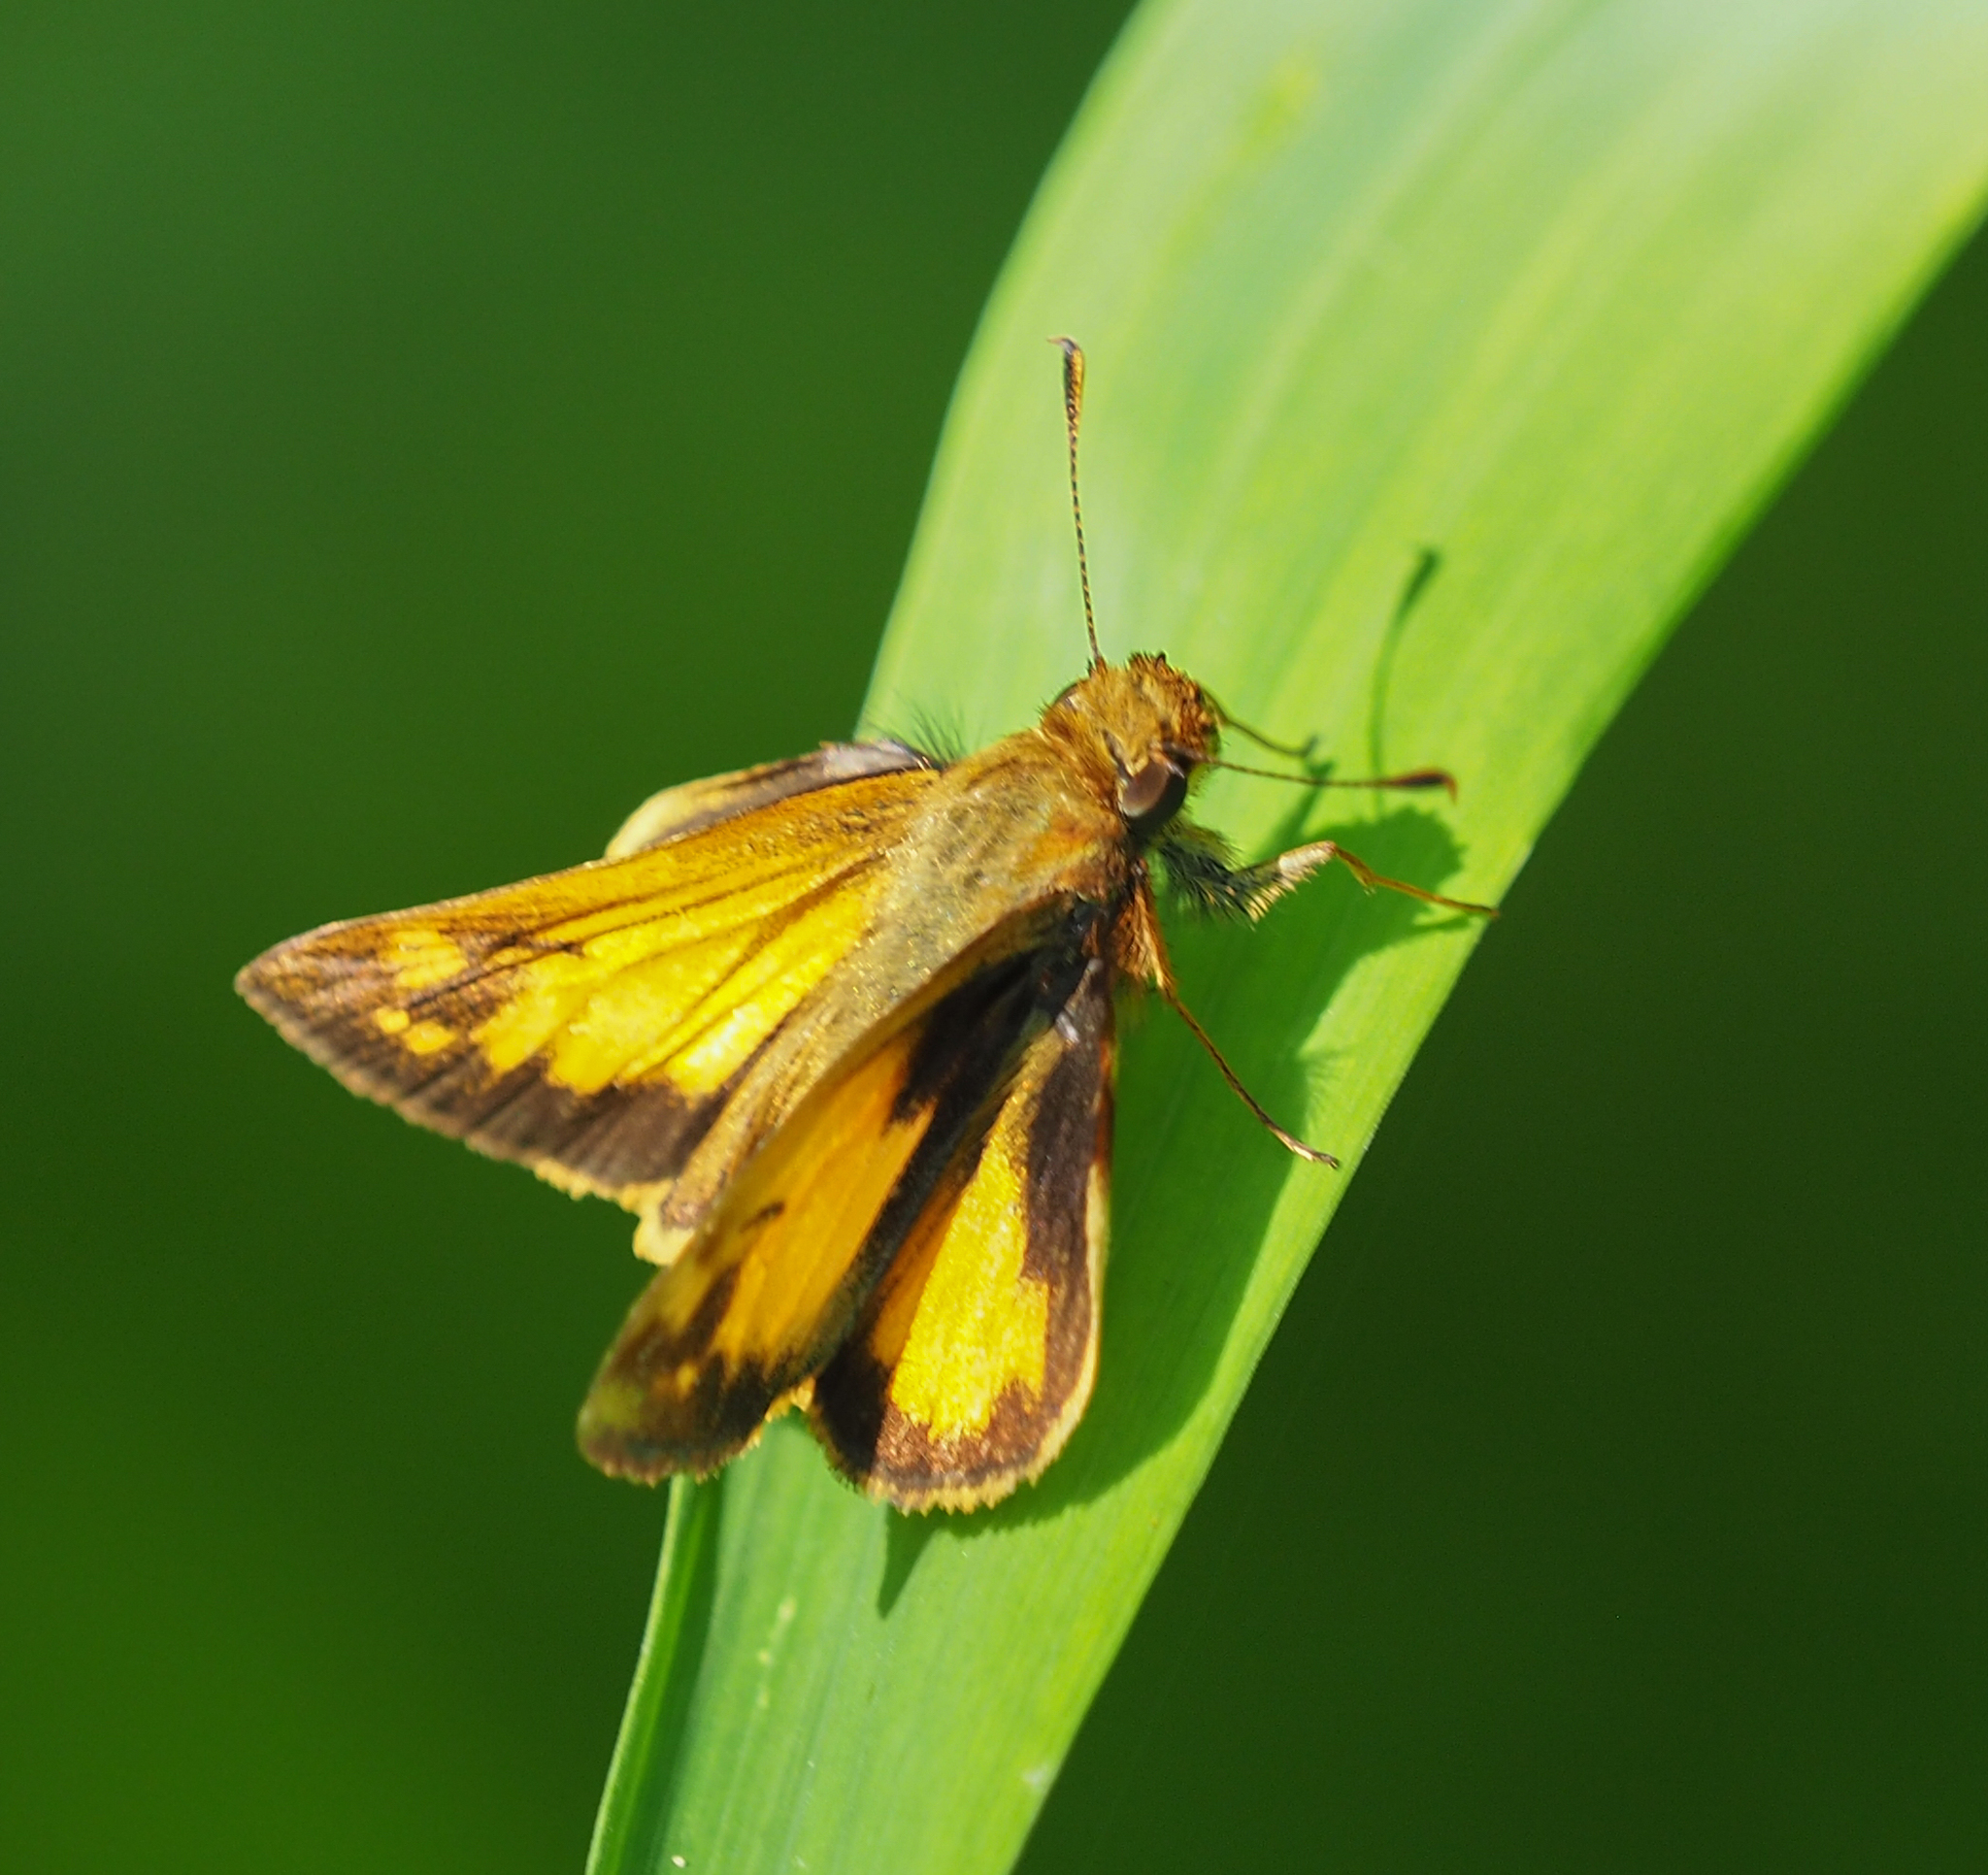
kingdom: Animalia
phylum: Arthropoda
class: Insecta
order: Lepidoptera
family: Hesperiidae
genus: Lon
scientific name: Lon zabulon
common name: Zabulon skipper
